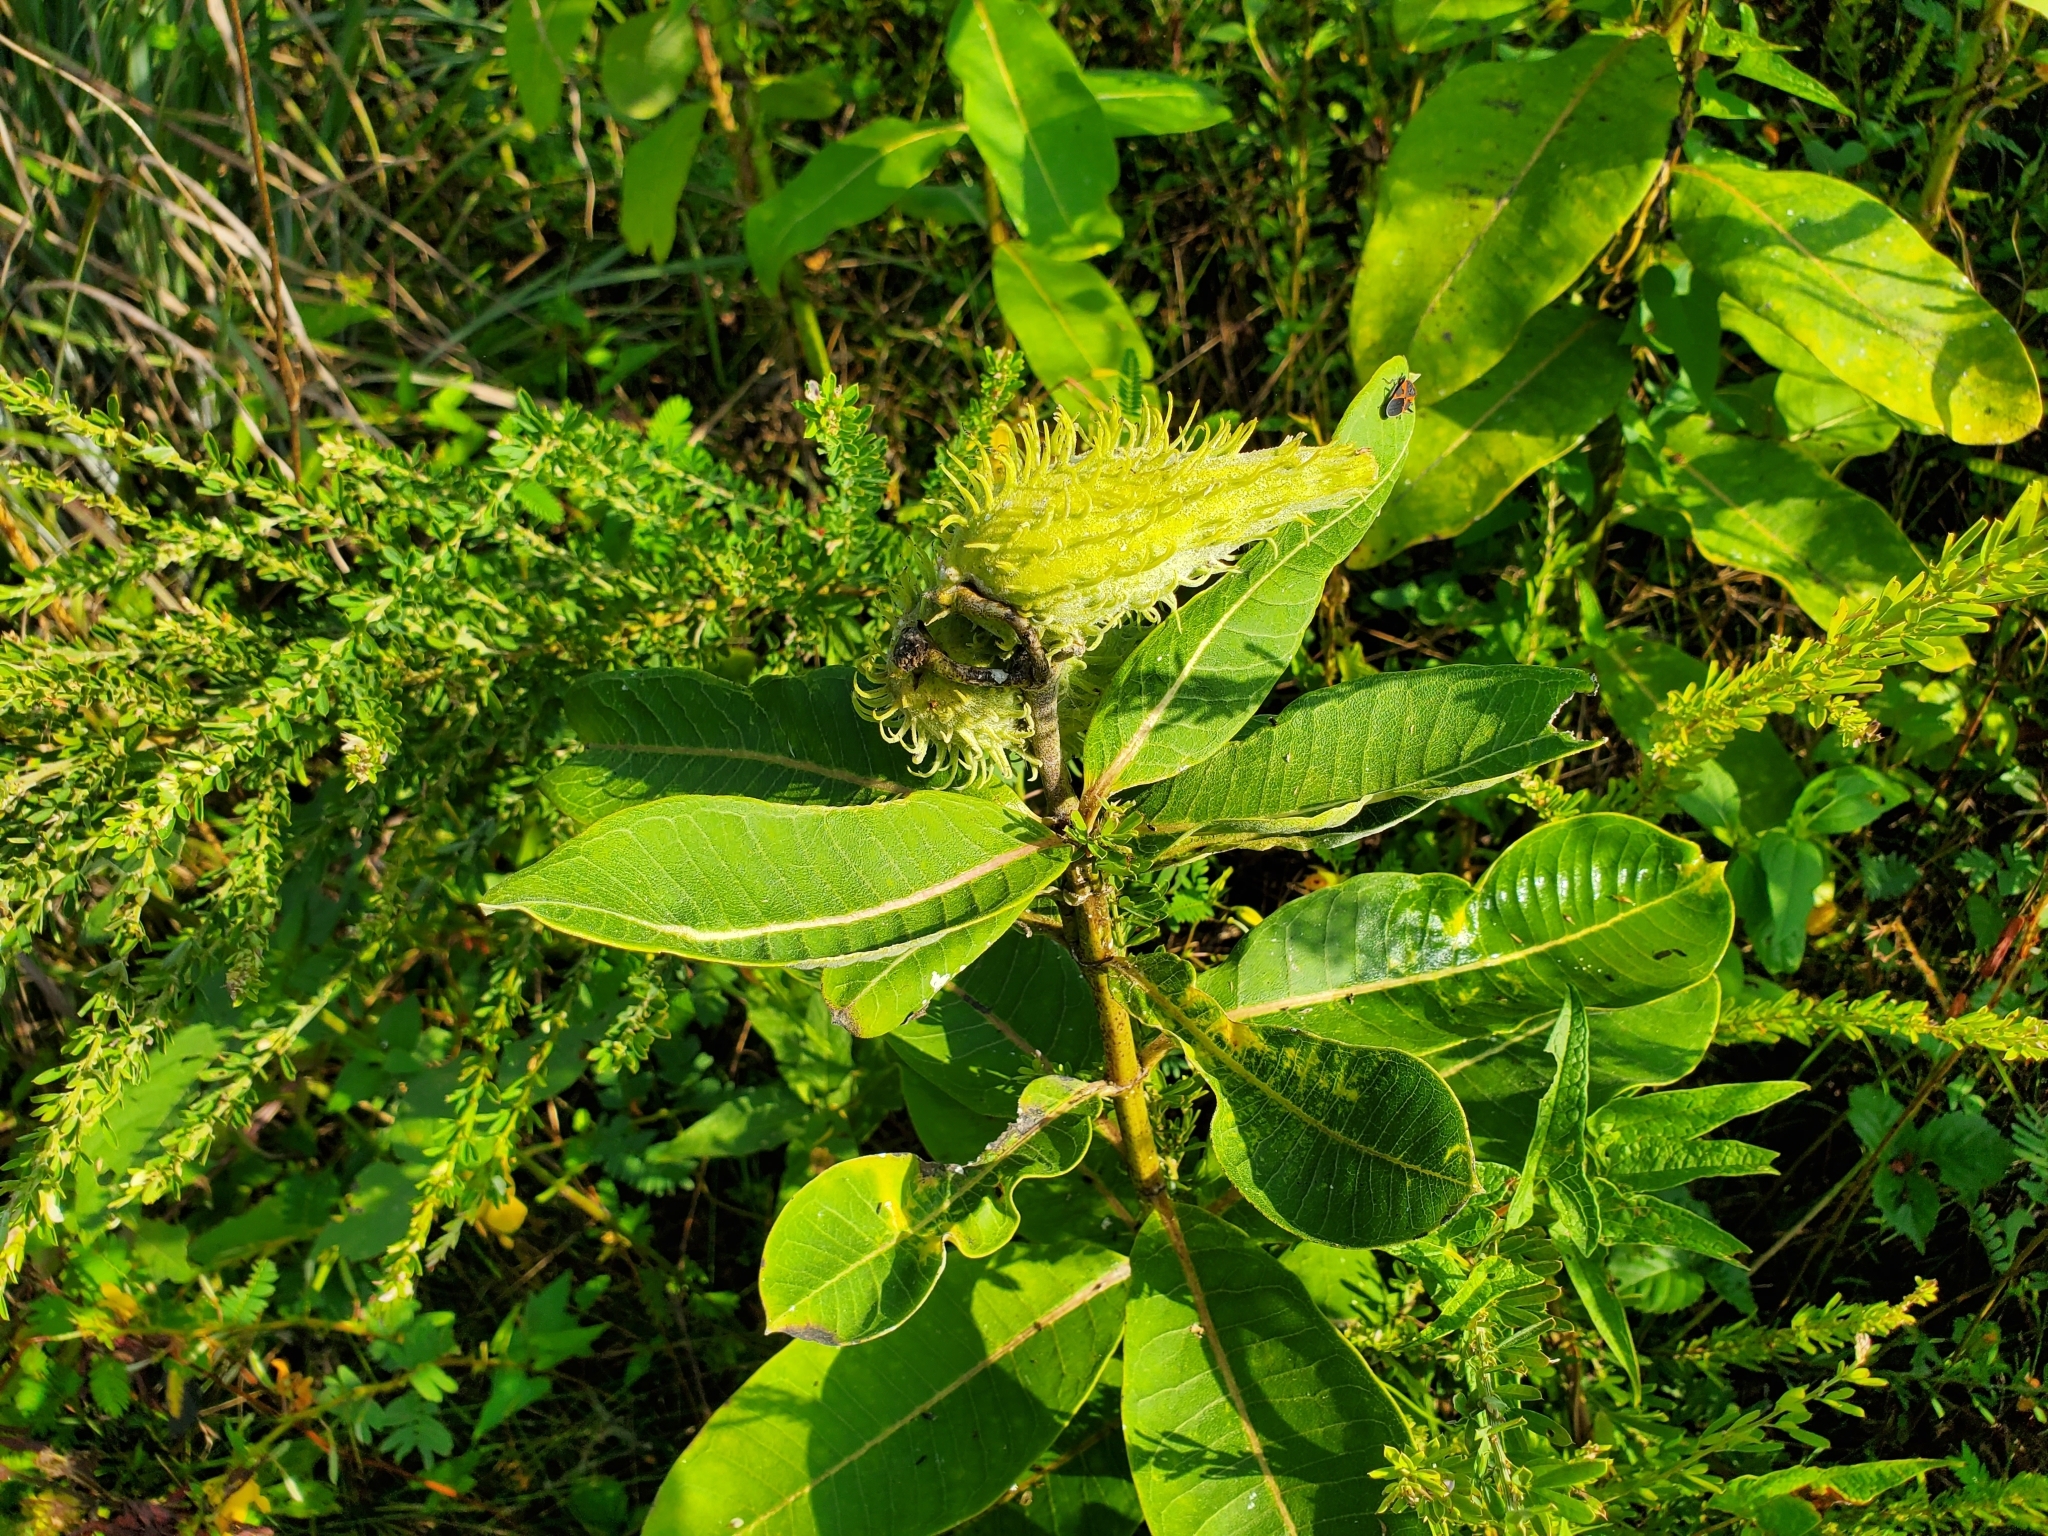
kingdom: Plantae
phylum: Tracheophyta
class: Magnoliopsida
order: Gentianales
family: Apocynaceae
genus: Asclepias
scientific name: Asclepias syriaca
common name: Common milkweed
